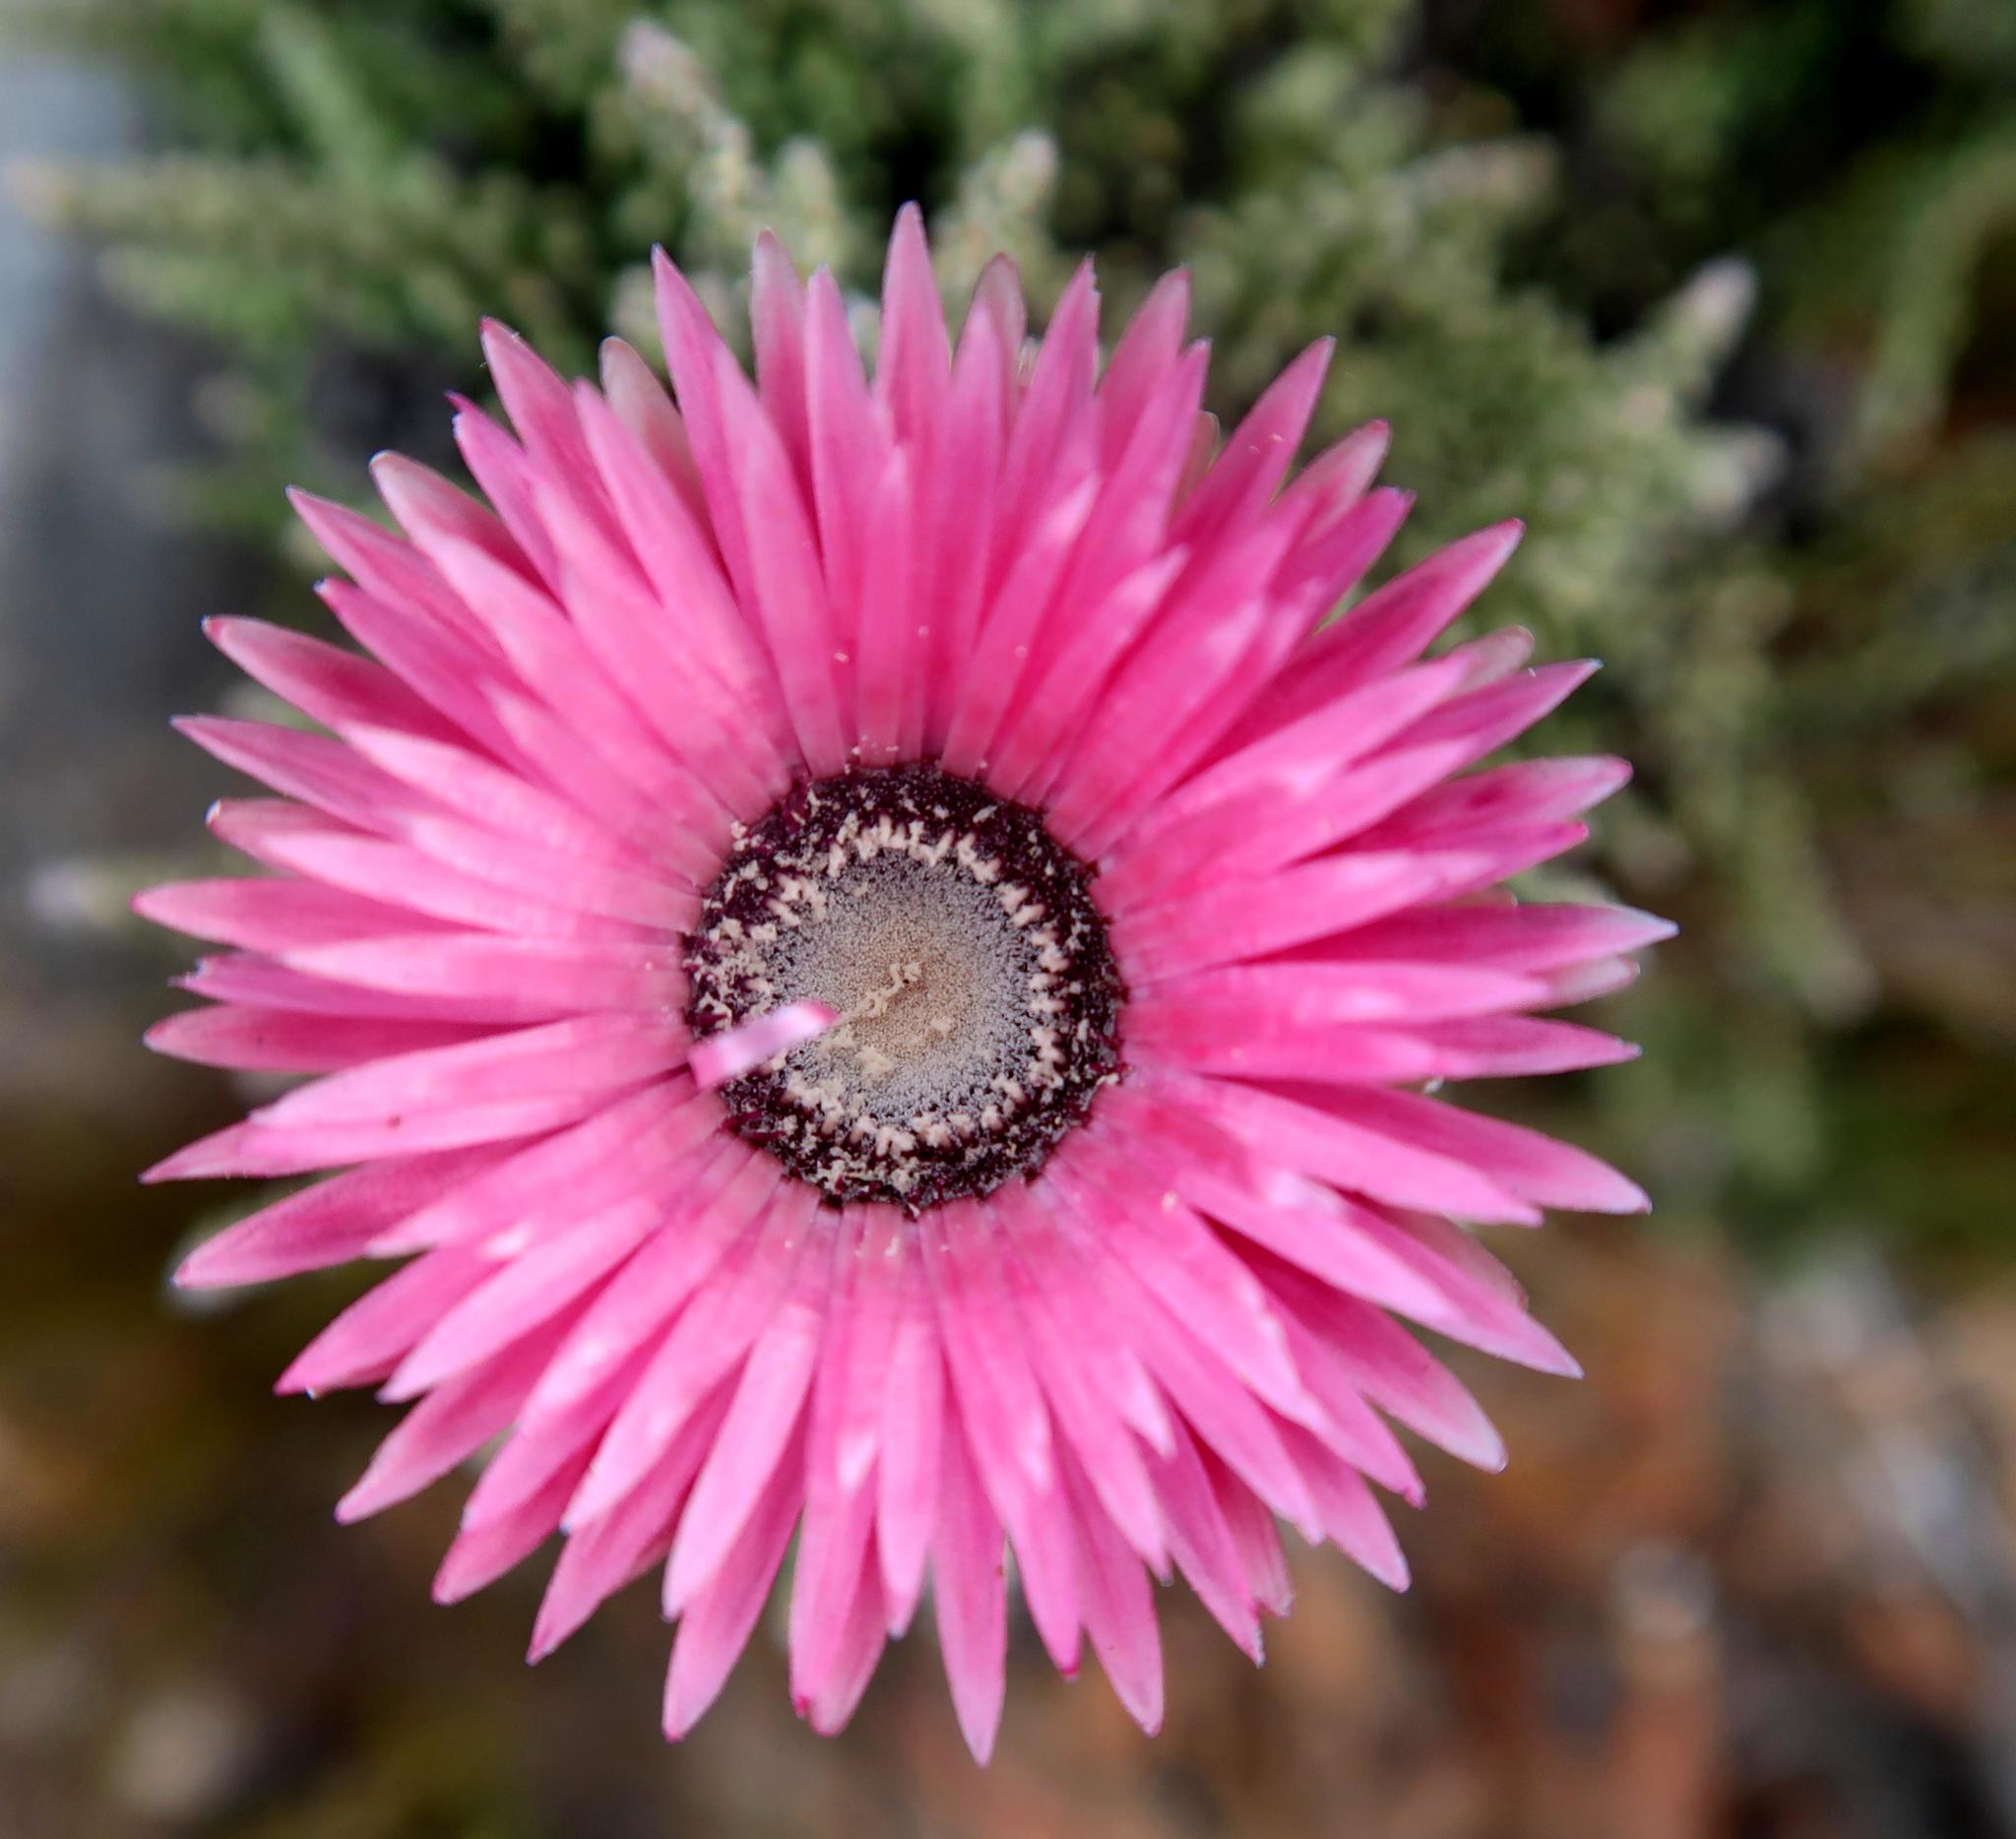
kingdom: Plantae
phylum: Tracheophyta
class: Magnoliopsida
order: Asterales
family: Asteraceae
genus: Phaenocoma
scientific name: Phaenocoma prolifera
